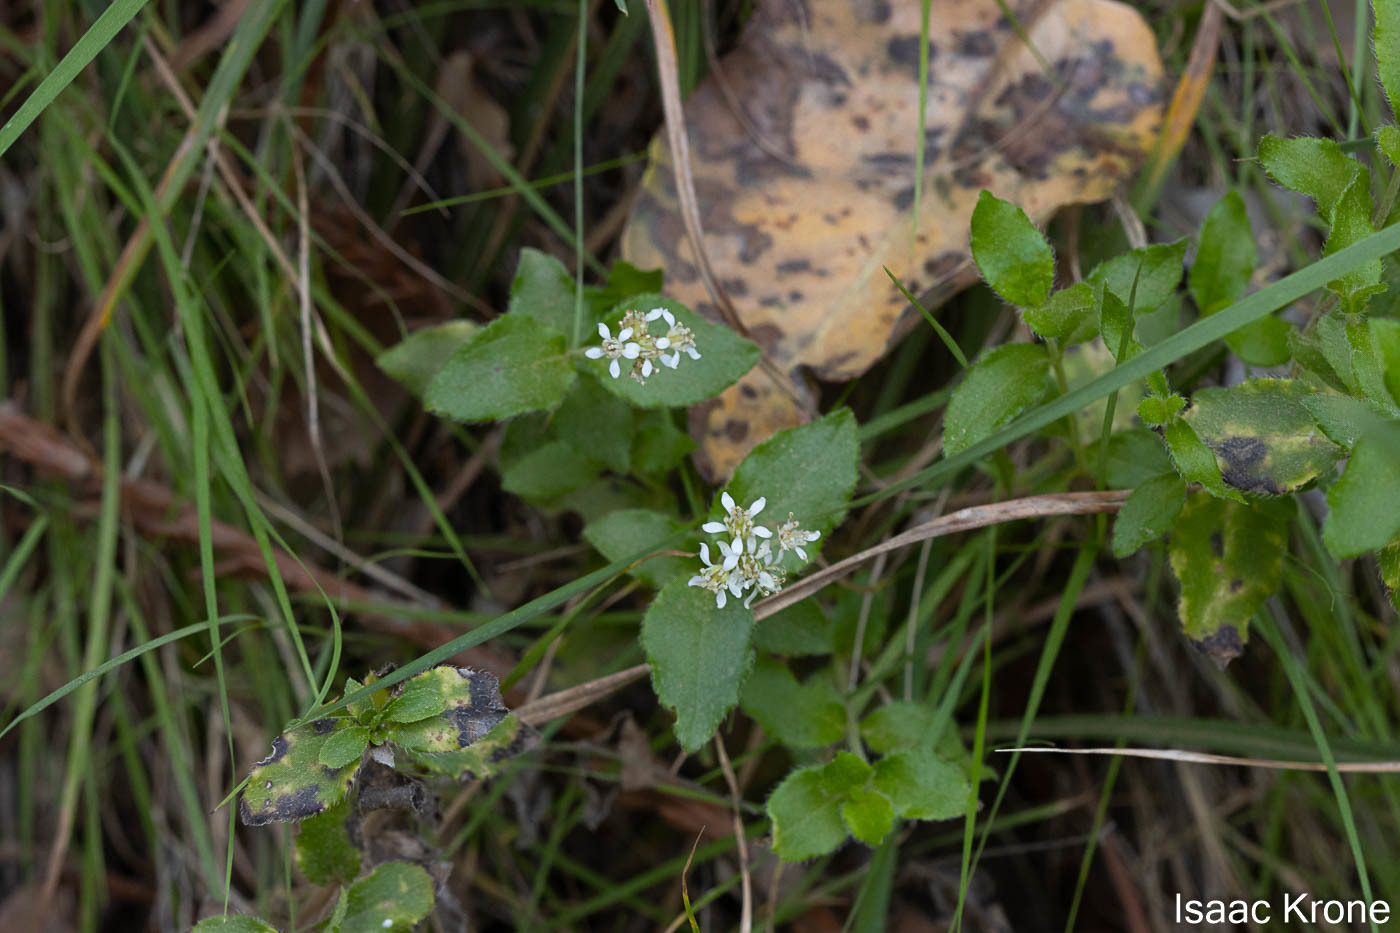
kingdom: Plantae
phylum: Tracheophyta
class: Magnoliopsida
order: Cornales
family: Hydrangeaceae
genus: Whipplea
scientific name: Whipplea modesta
